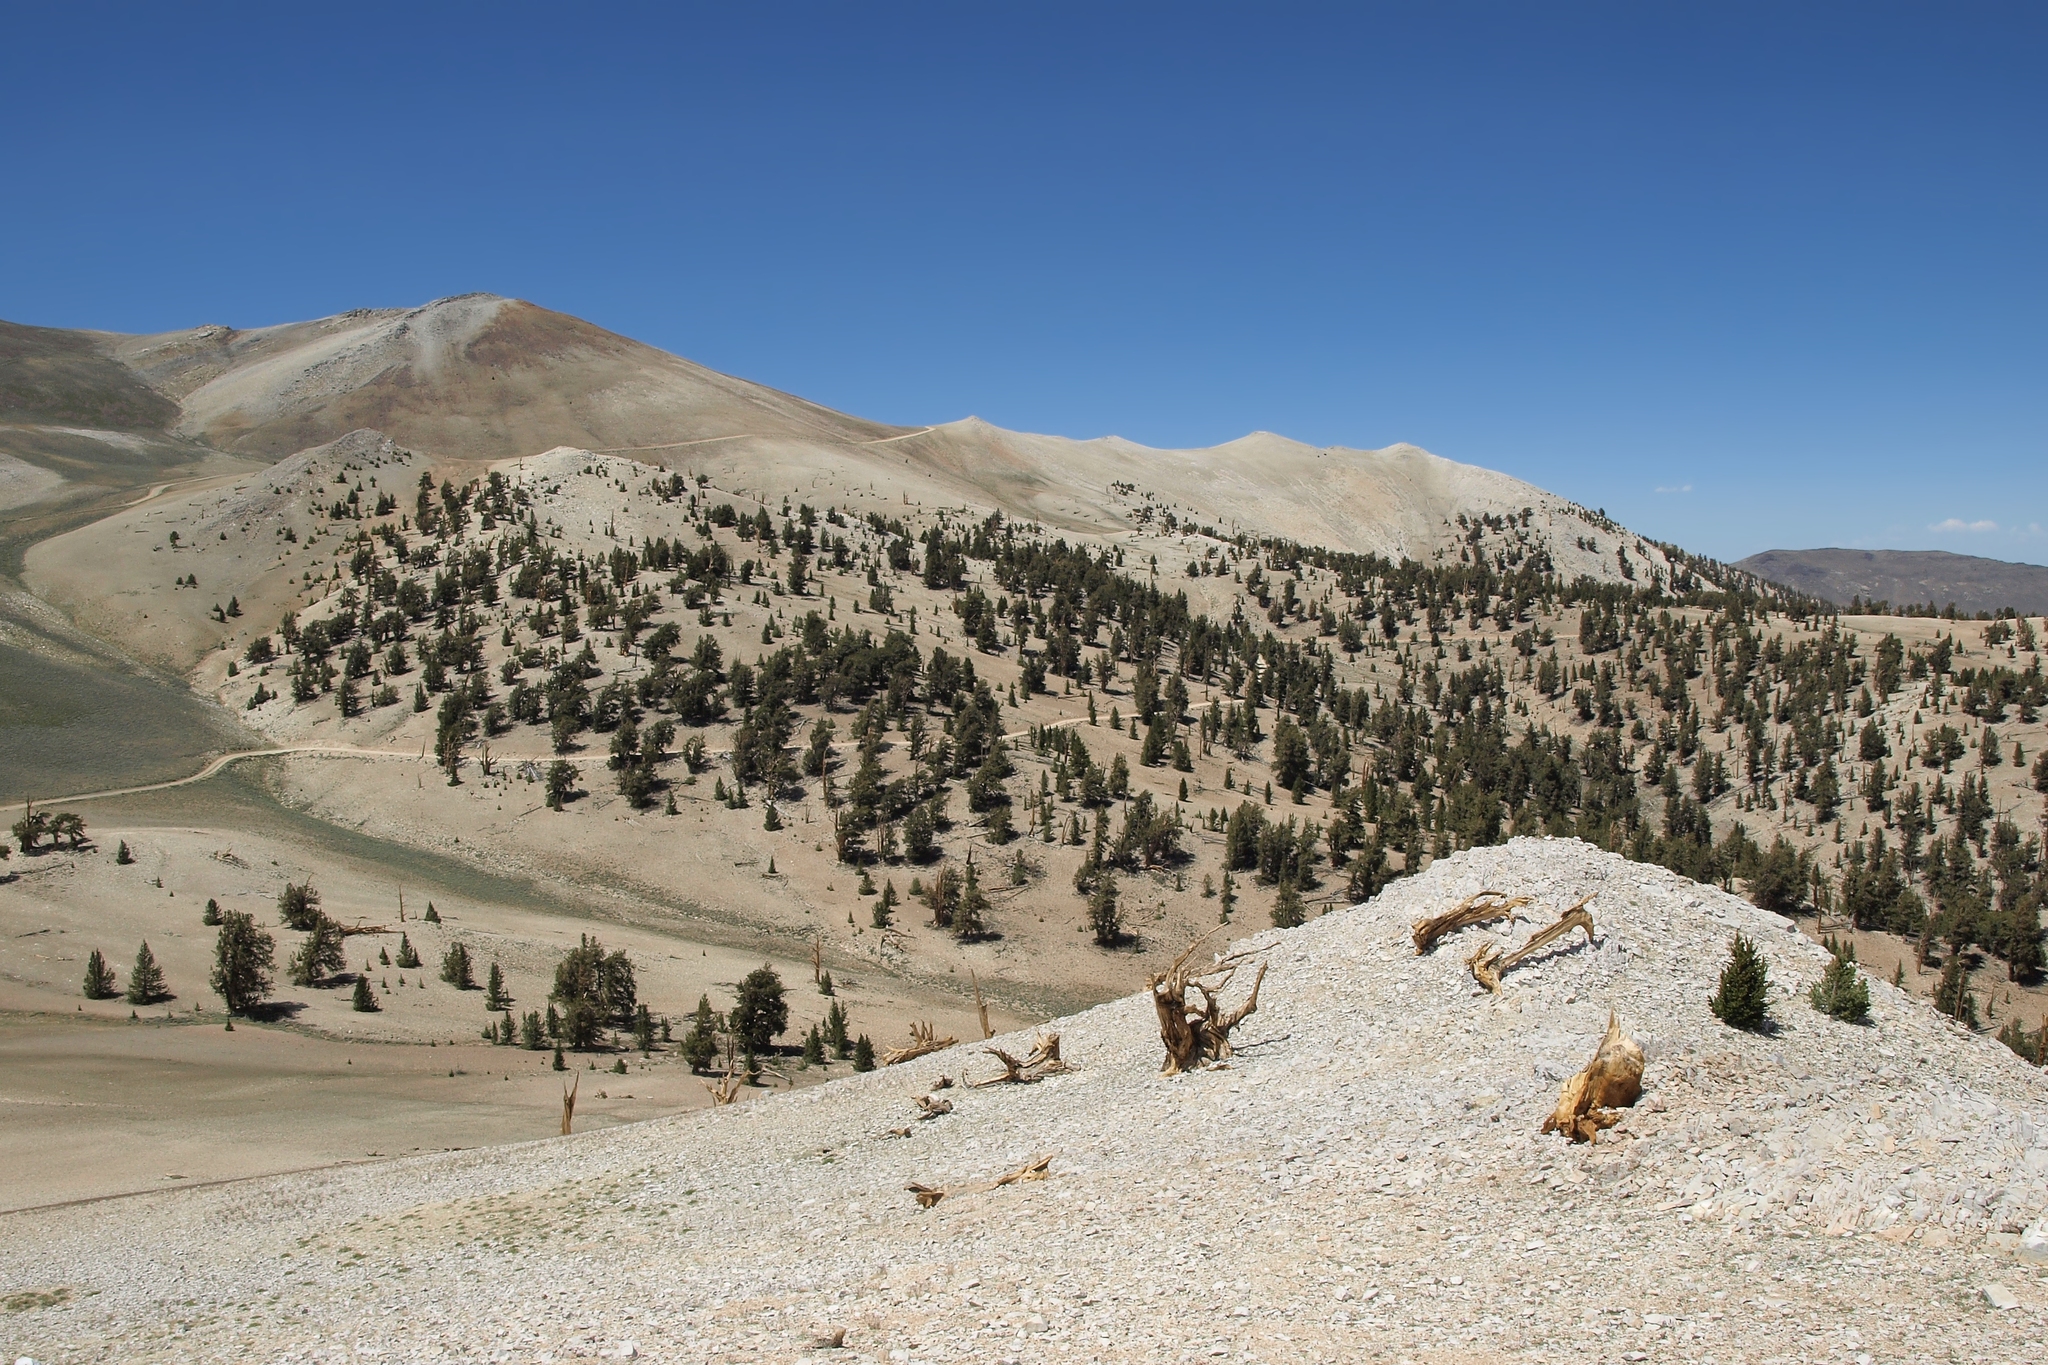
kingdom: Plantae
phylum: Tracheophyta
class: Pinopsida
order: Pinales
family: Pinaceae
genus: Pinus
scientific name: Pinus longaeva
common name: Intermountain bristlecone pine
